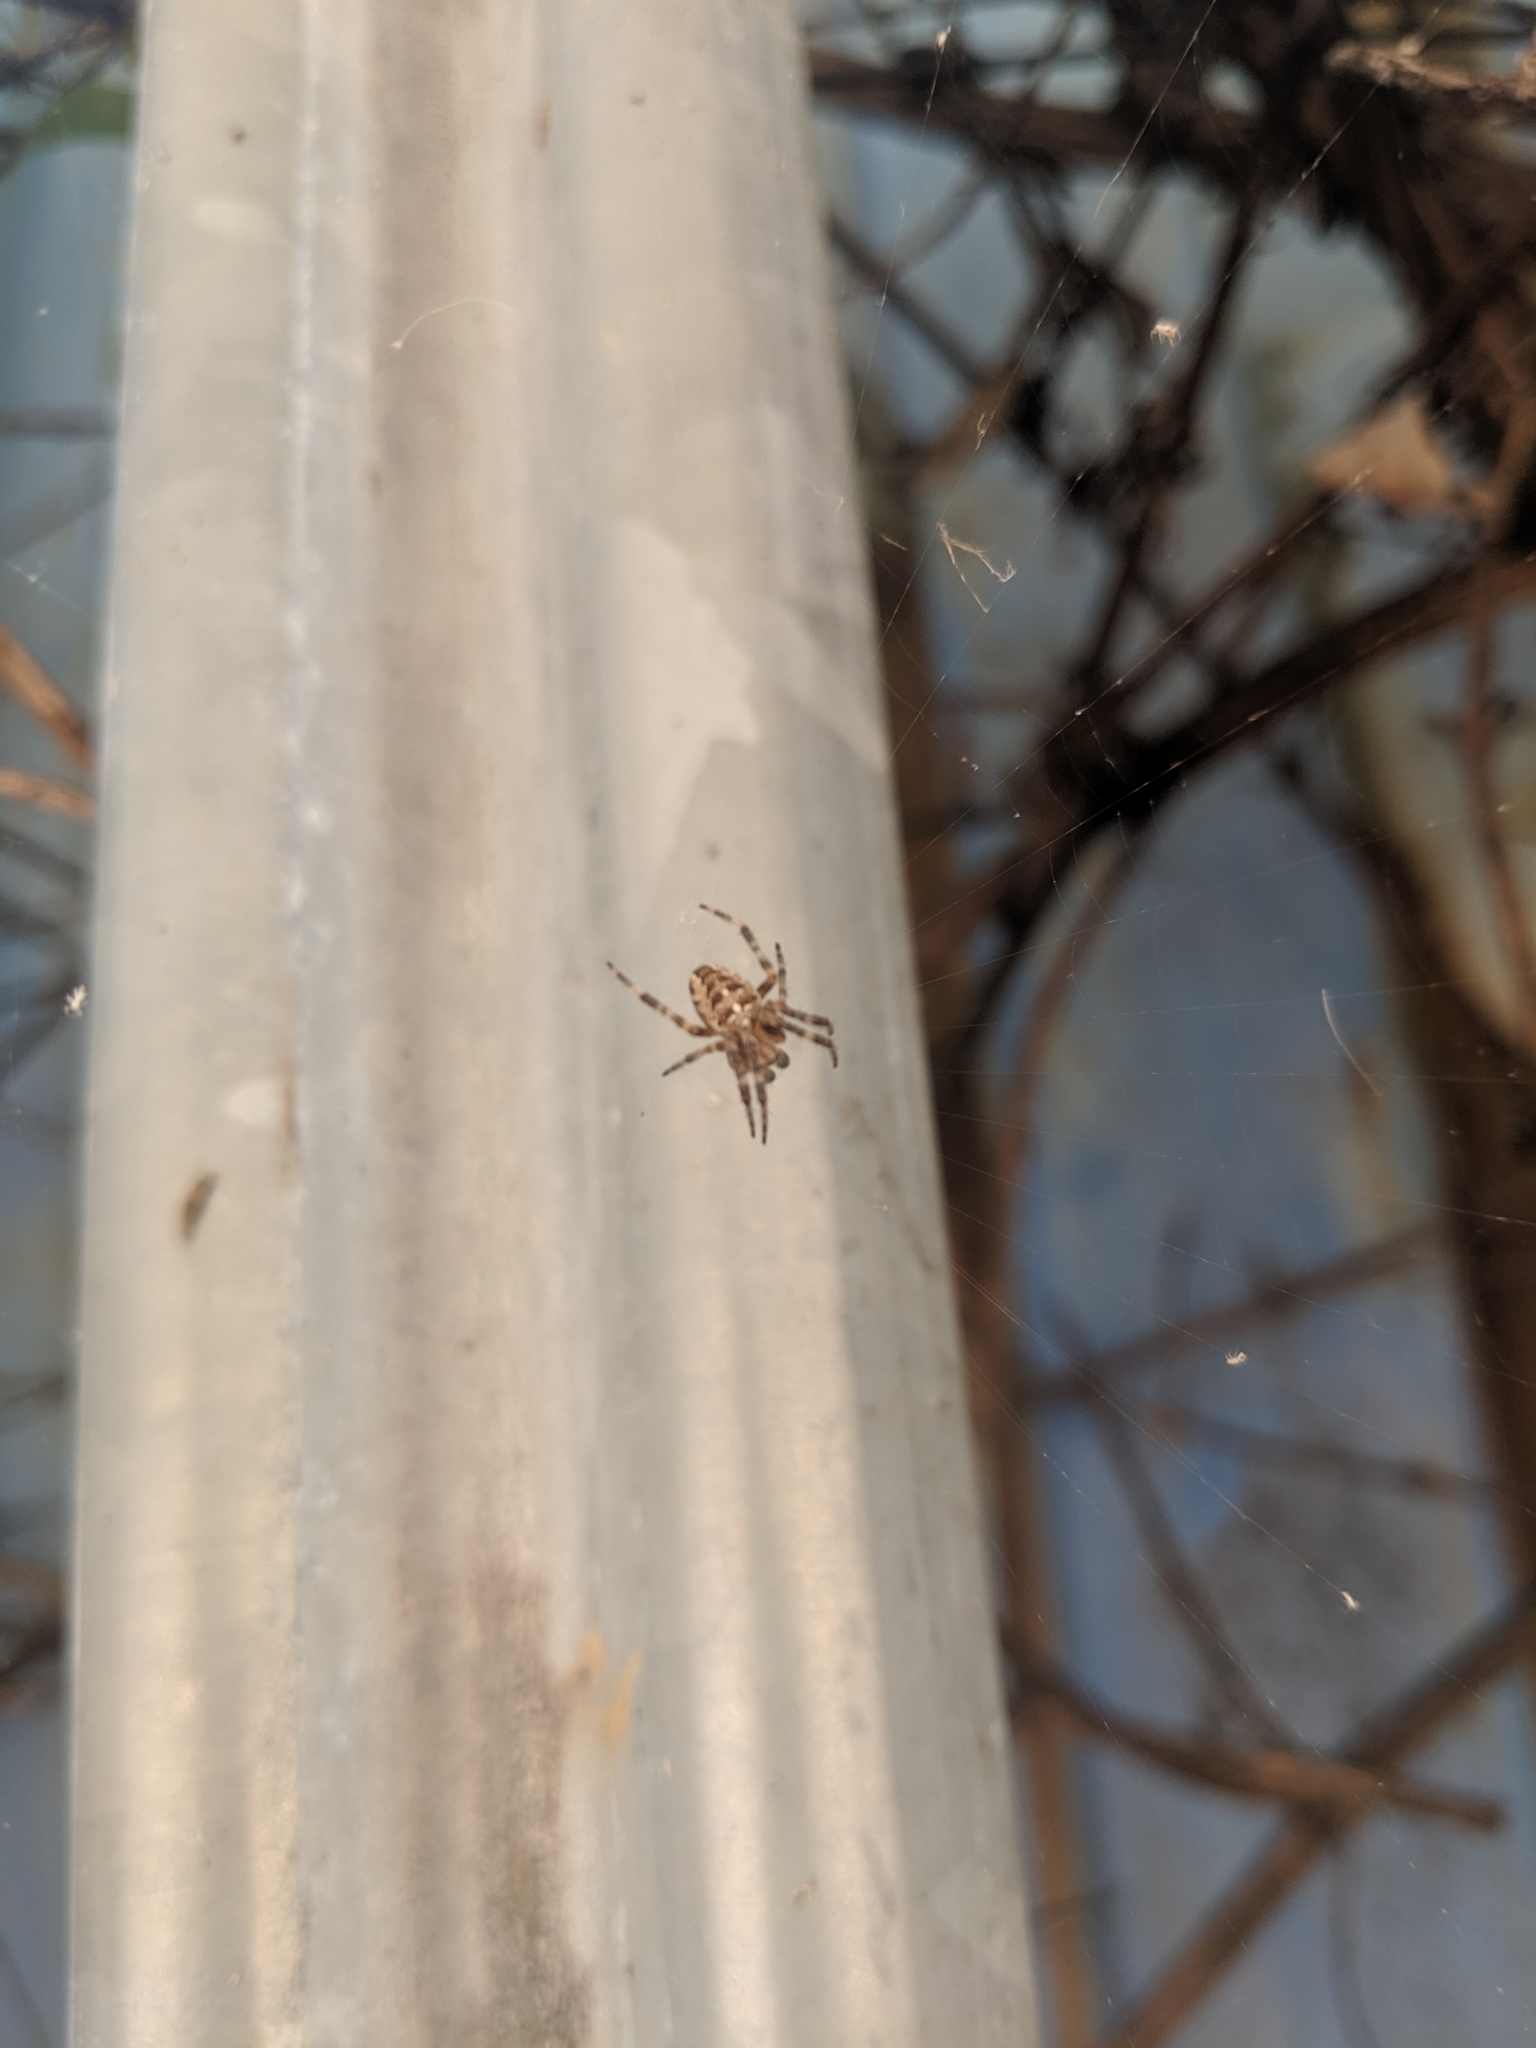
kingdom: Animalia
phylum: Arthropoda
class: Arachnida
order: Araneae
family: Araneidae
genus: Araneus
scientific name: Araneus diadematus
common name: Cross orbweaver
